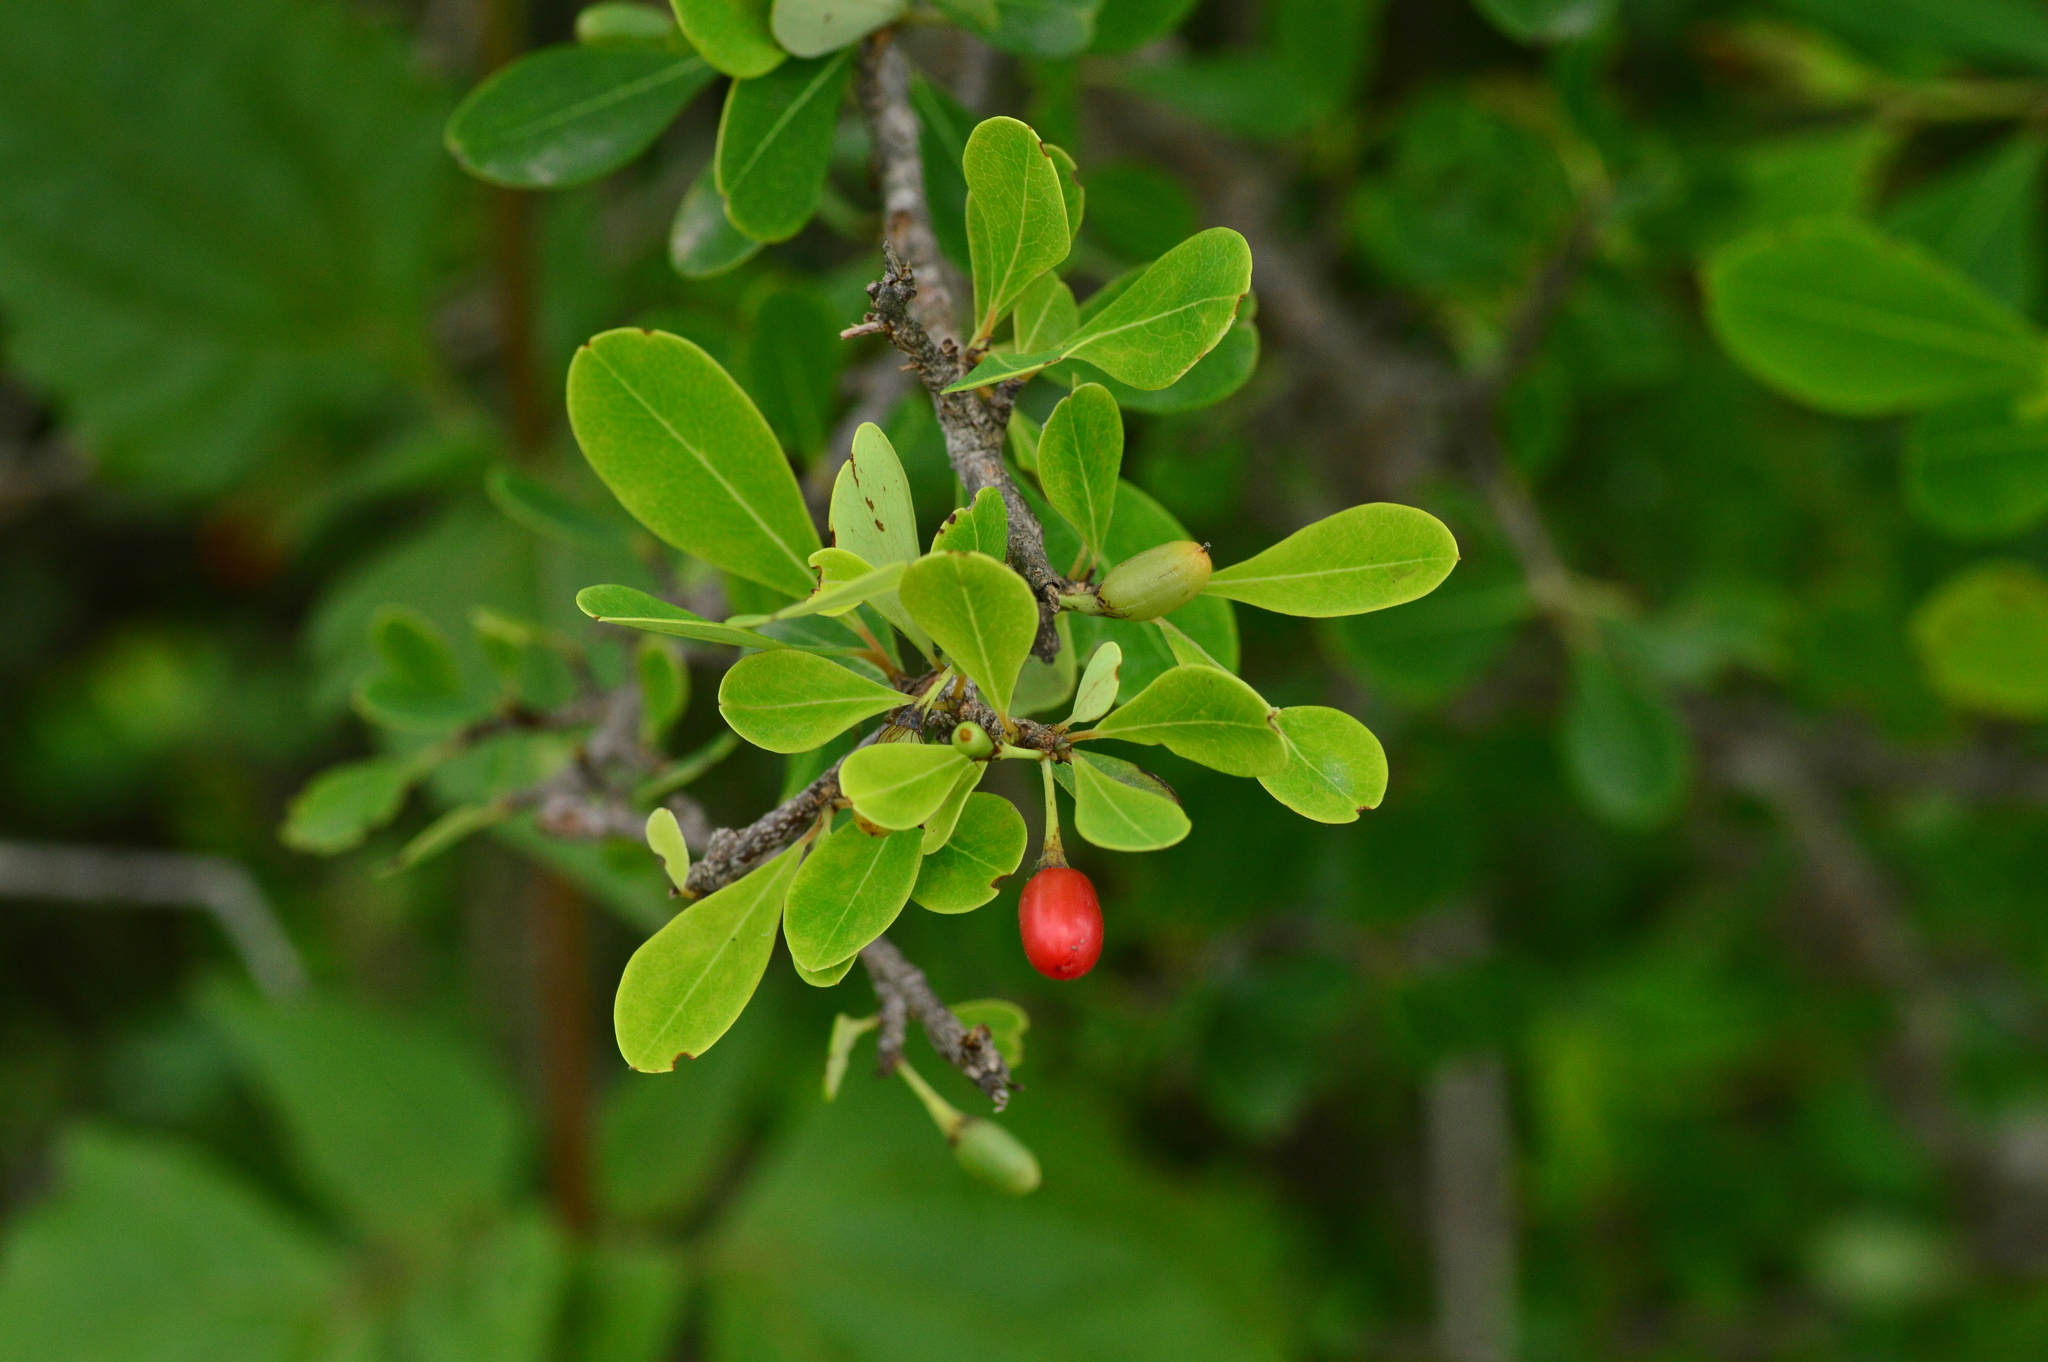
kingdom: Plantae
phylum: Tracheophyta
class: Magnoliopsida
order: Malpighiales
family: Erythroxylaceae
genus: Erythroxylum
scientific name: Erythroxylum monogynum
